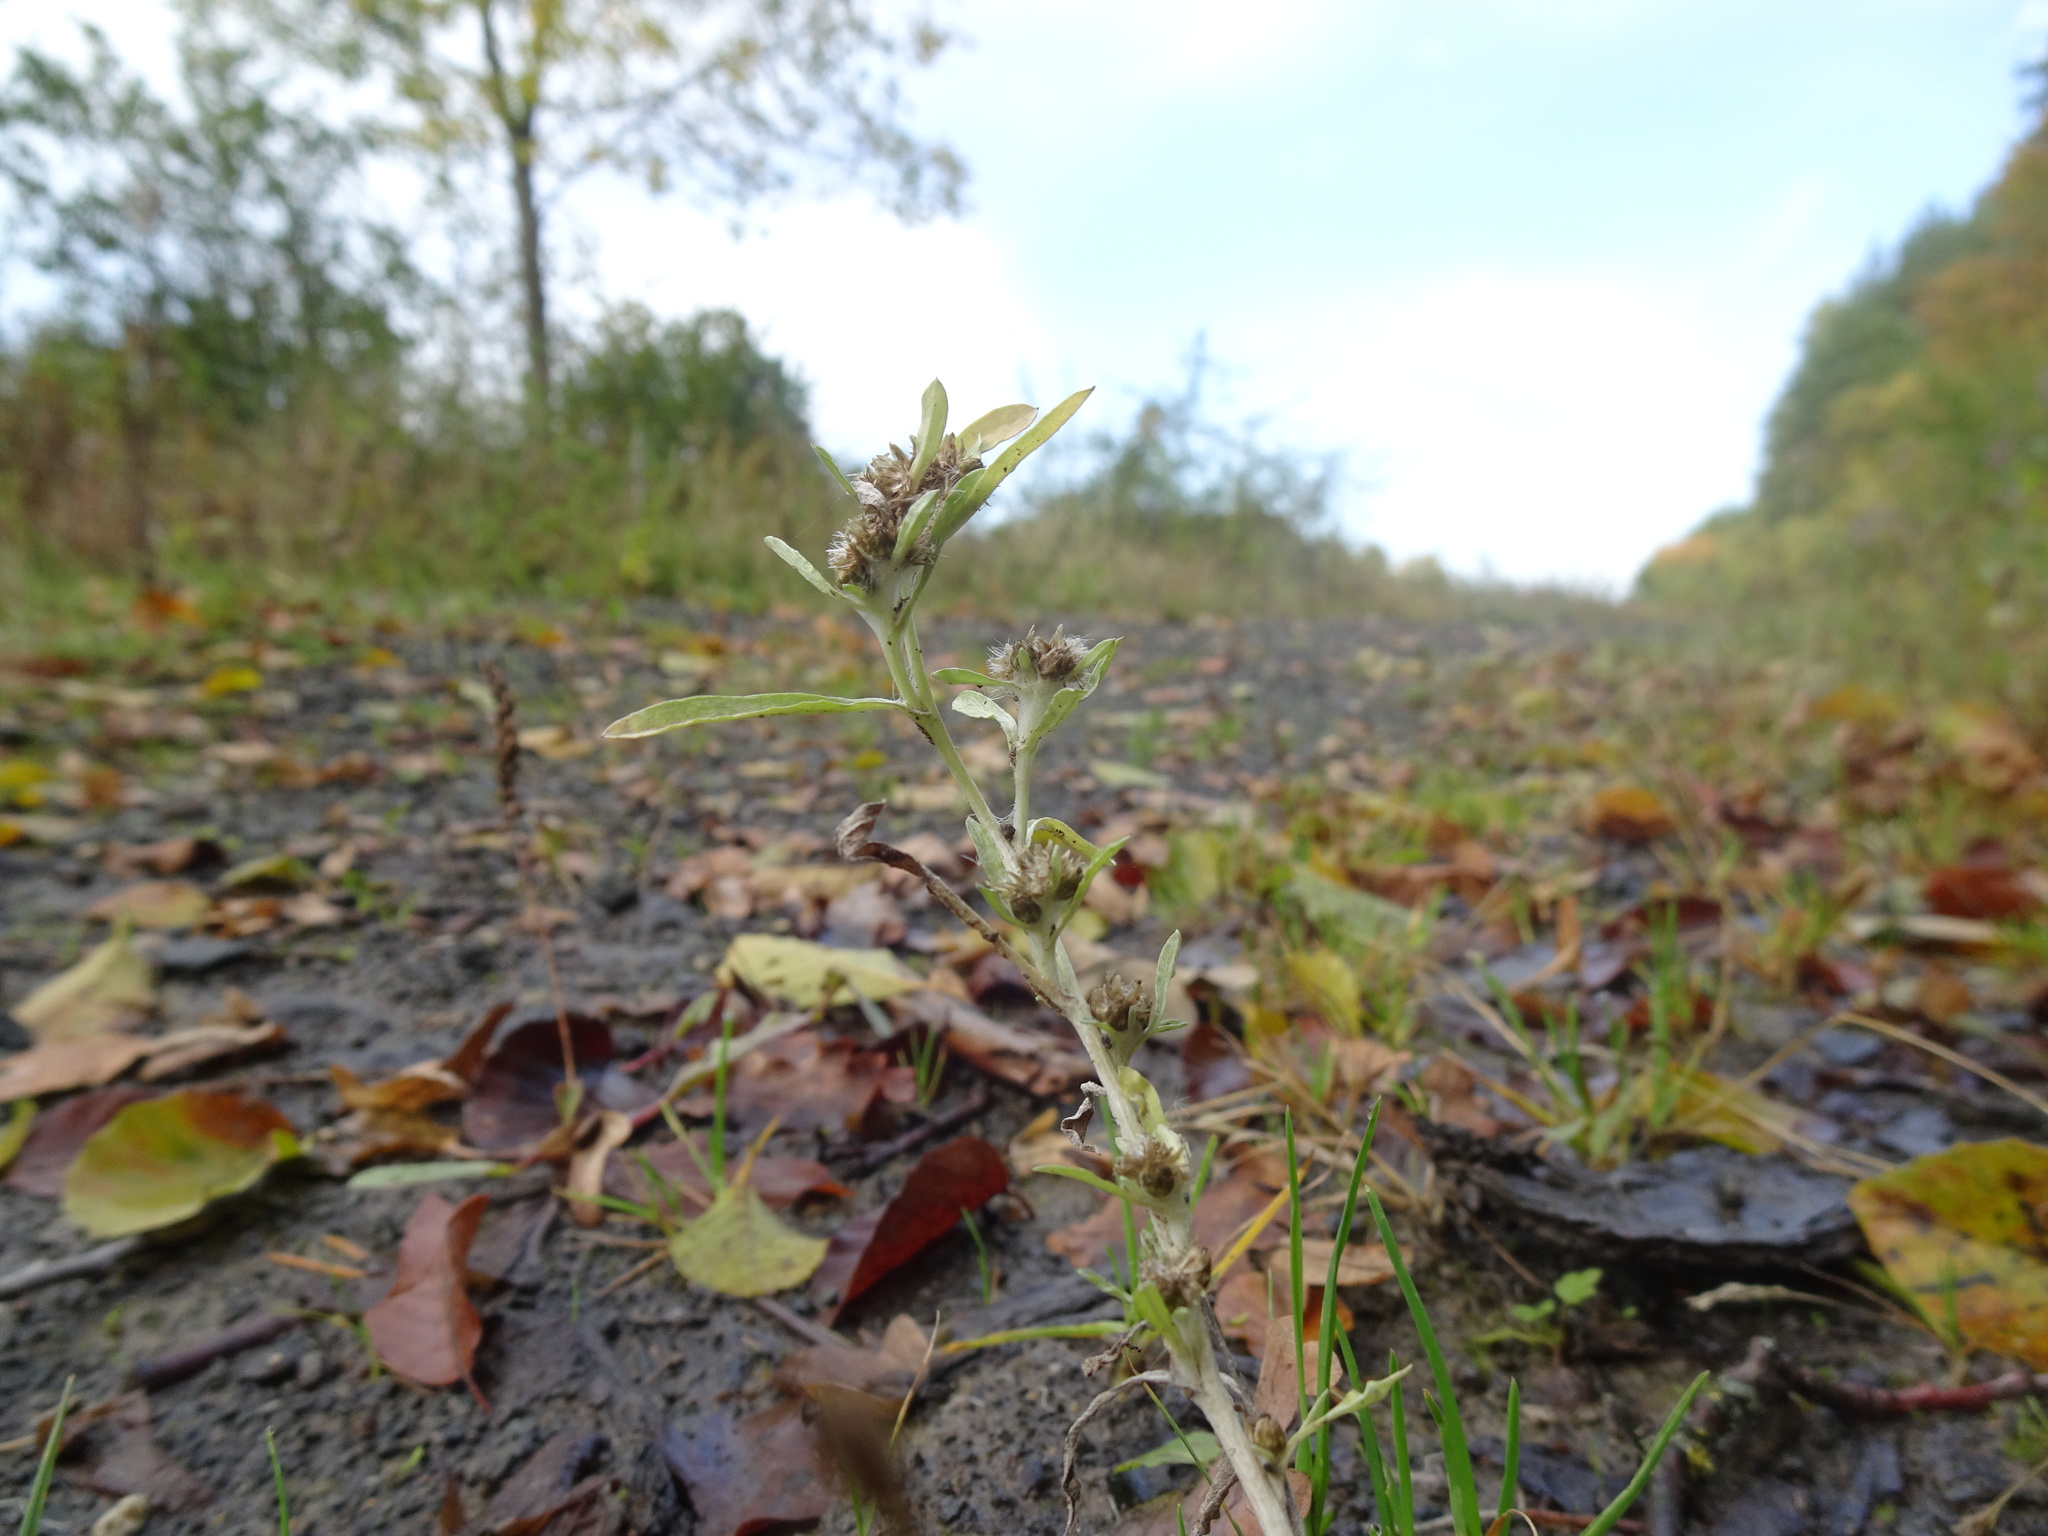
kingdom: Plantae
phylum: Tracheophyta
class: Magnoliopsida
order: Asterales
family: Asteraceae
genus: Gnaphalium
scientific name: Gnaphalium uliginosum
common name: Marsh cudweed
